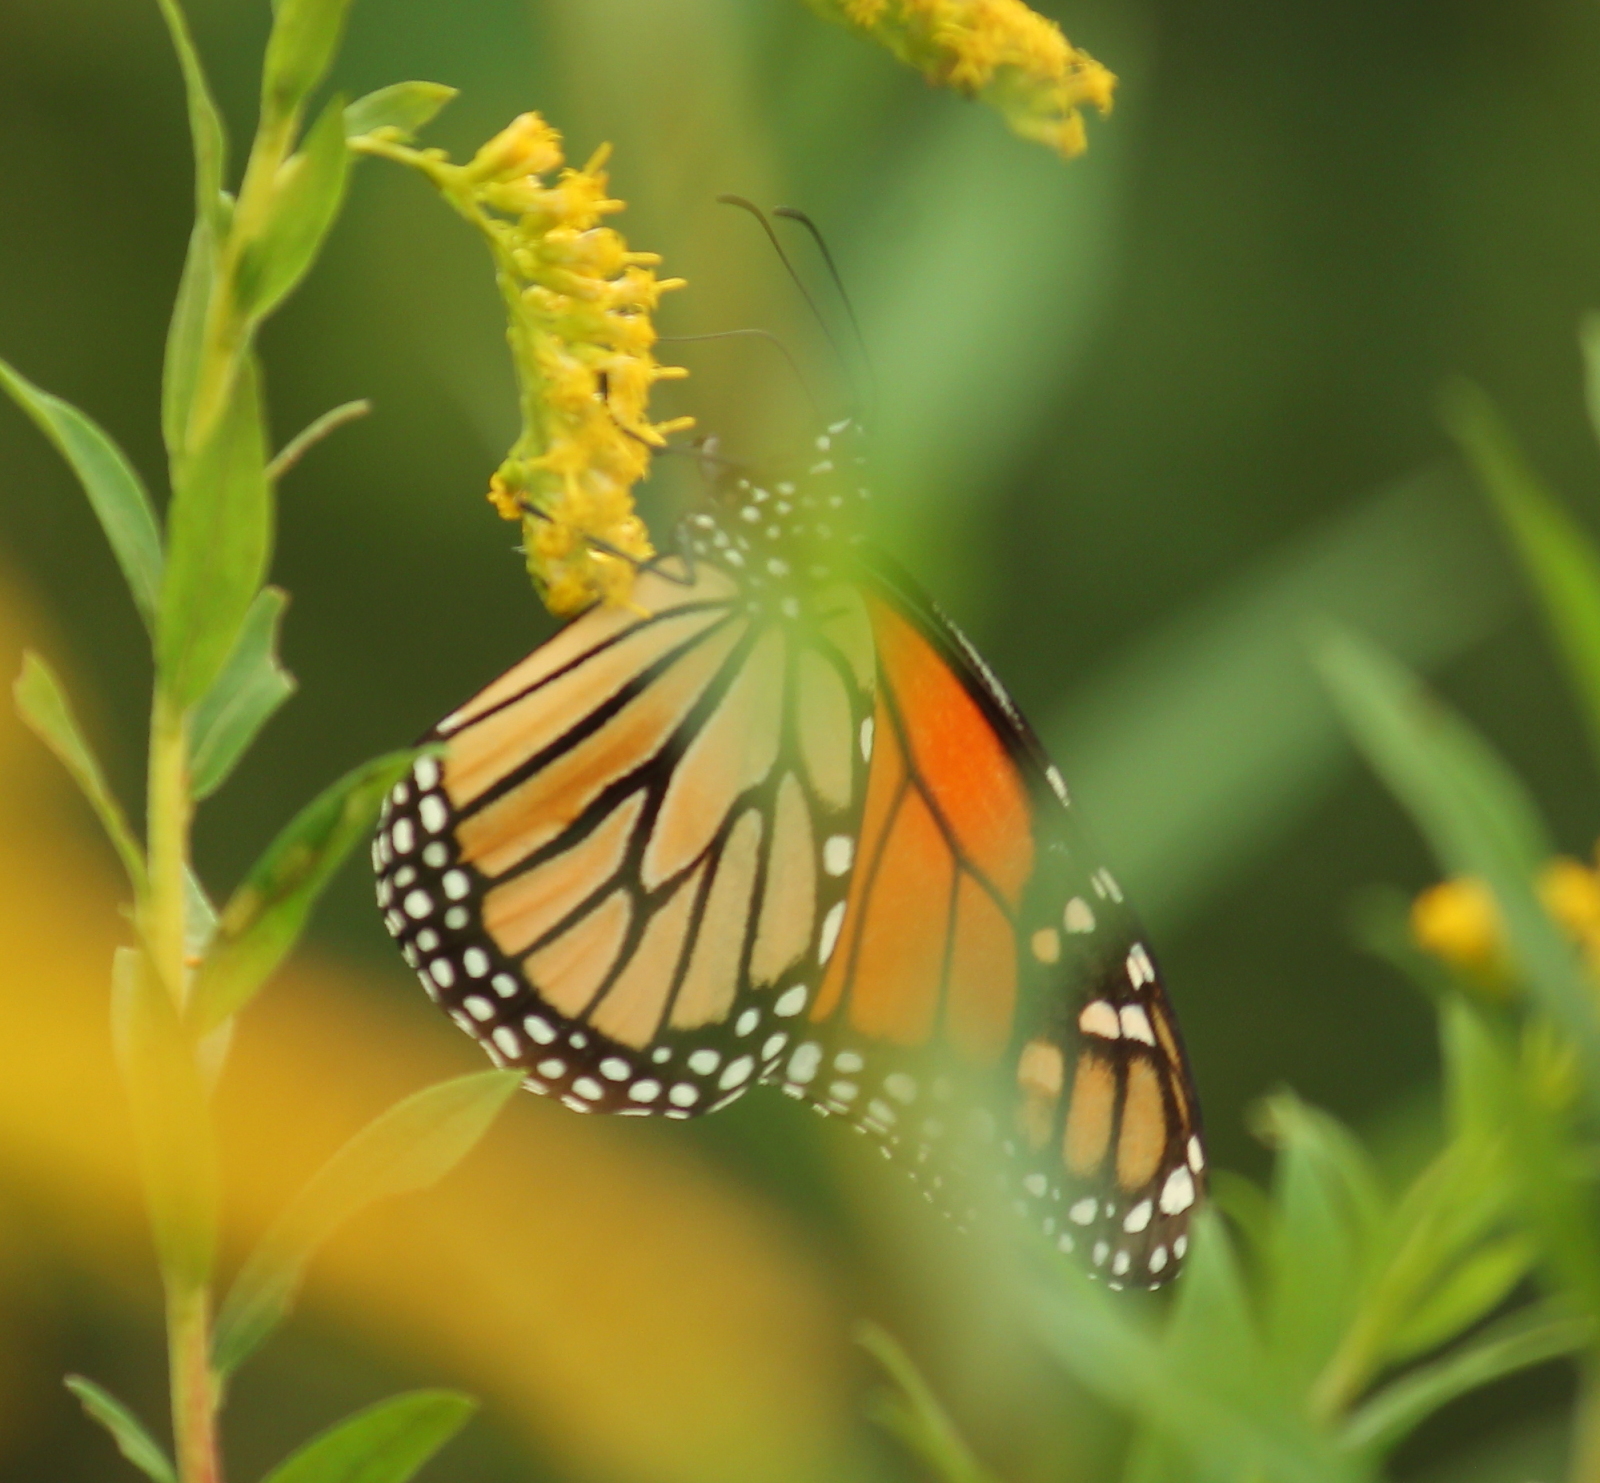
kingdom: Animalia
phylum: Arthropoda
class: Insecta
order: Lepidoptera
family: Nymphalidae
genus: Danaus
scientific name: Danaus plexippus
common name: Monarch
